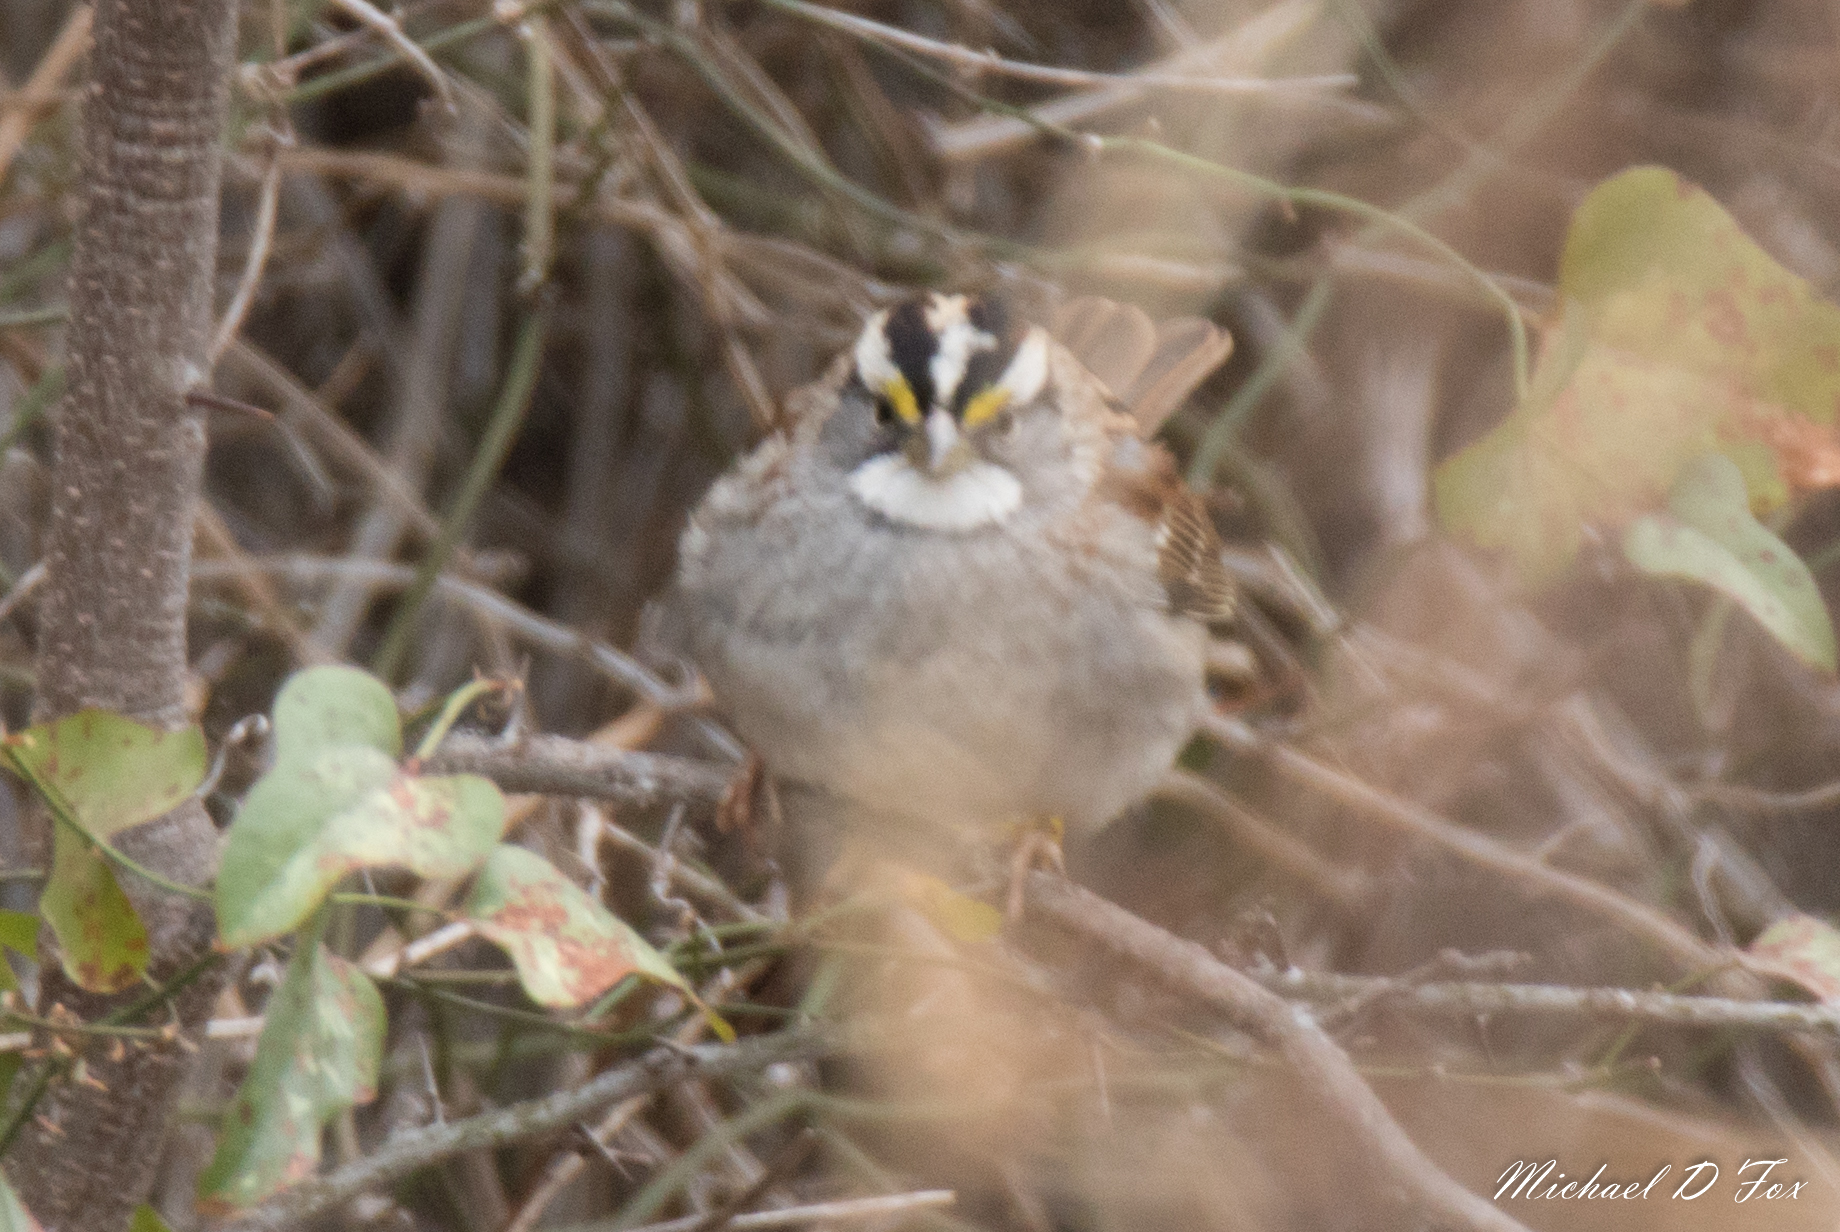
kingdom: Animalia
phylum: Chordata
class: Aves
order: Passeriformes
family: Passerellidae
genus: Zonotrichia
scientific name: Zonotrichia albicollis
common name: White-throated sparrow
